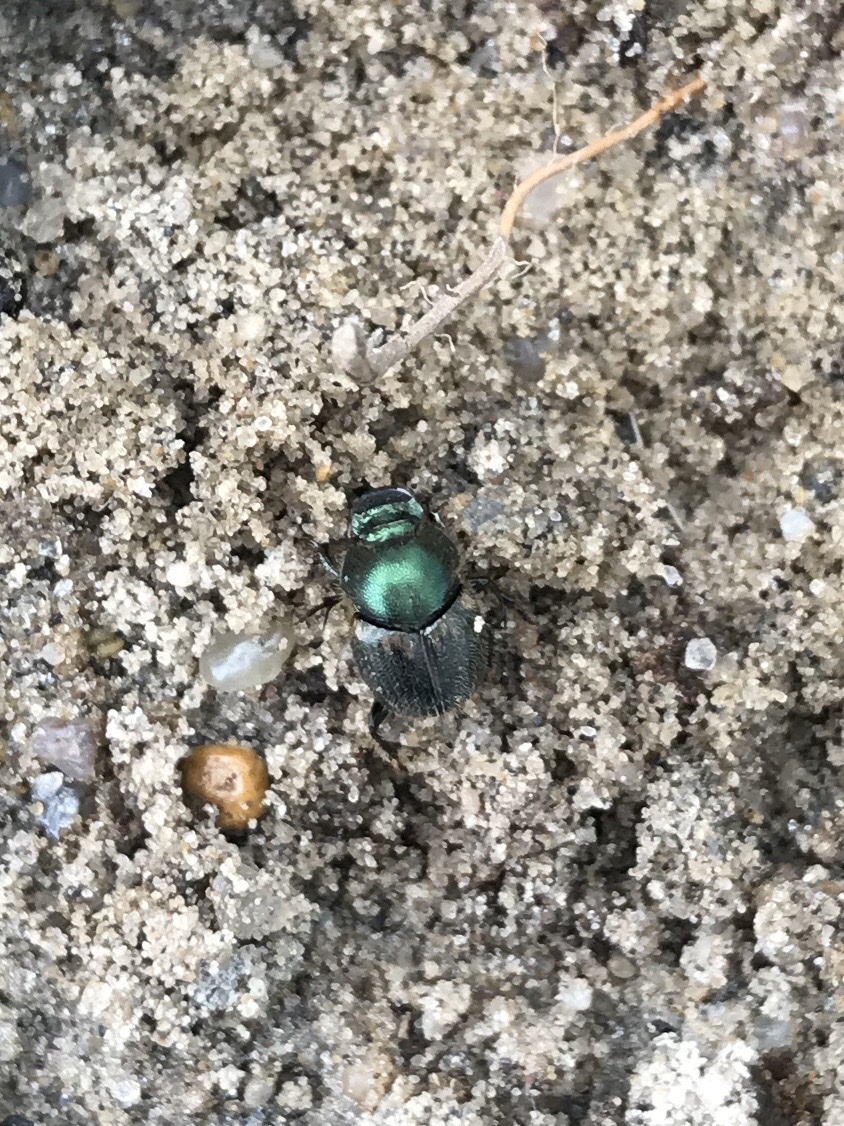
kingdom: Animalia
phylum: Arthropoda
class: Insecta
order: Coleoptera
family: Scarabaeidae
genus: Onthophagus
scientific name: Onthophagus concinnus
